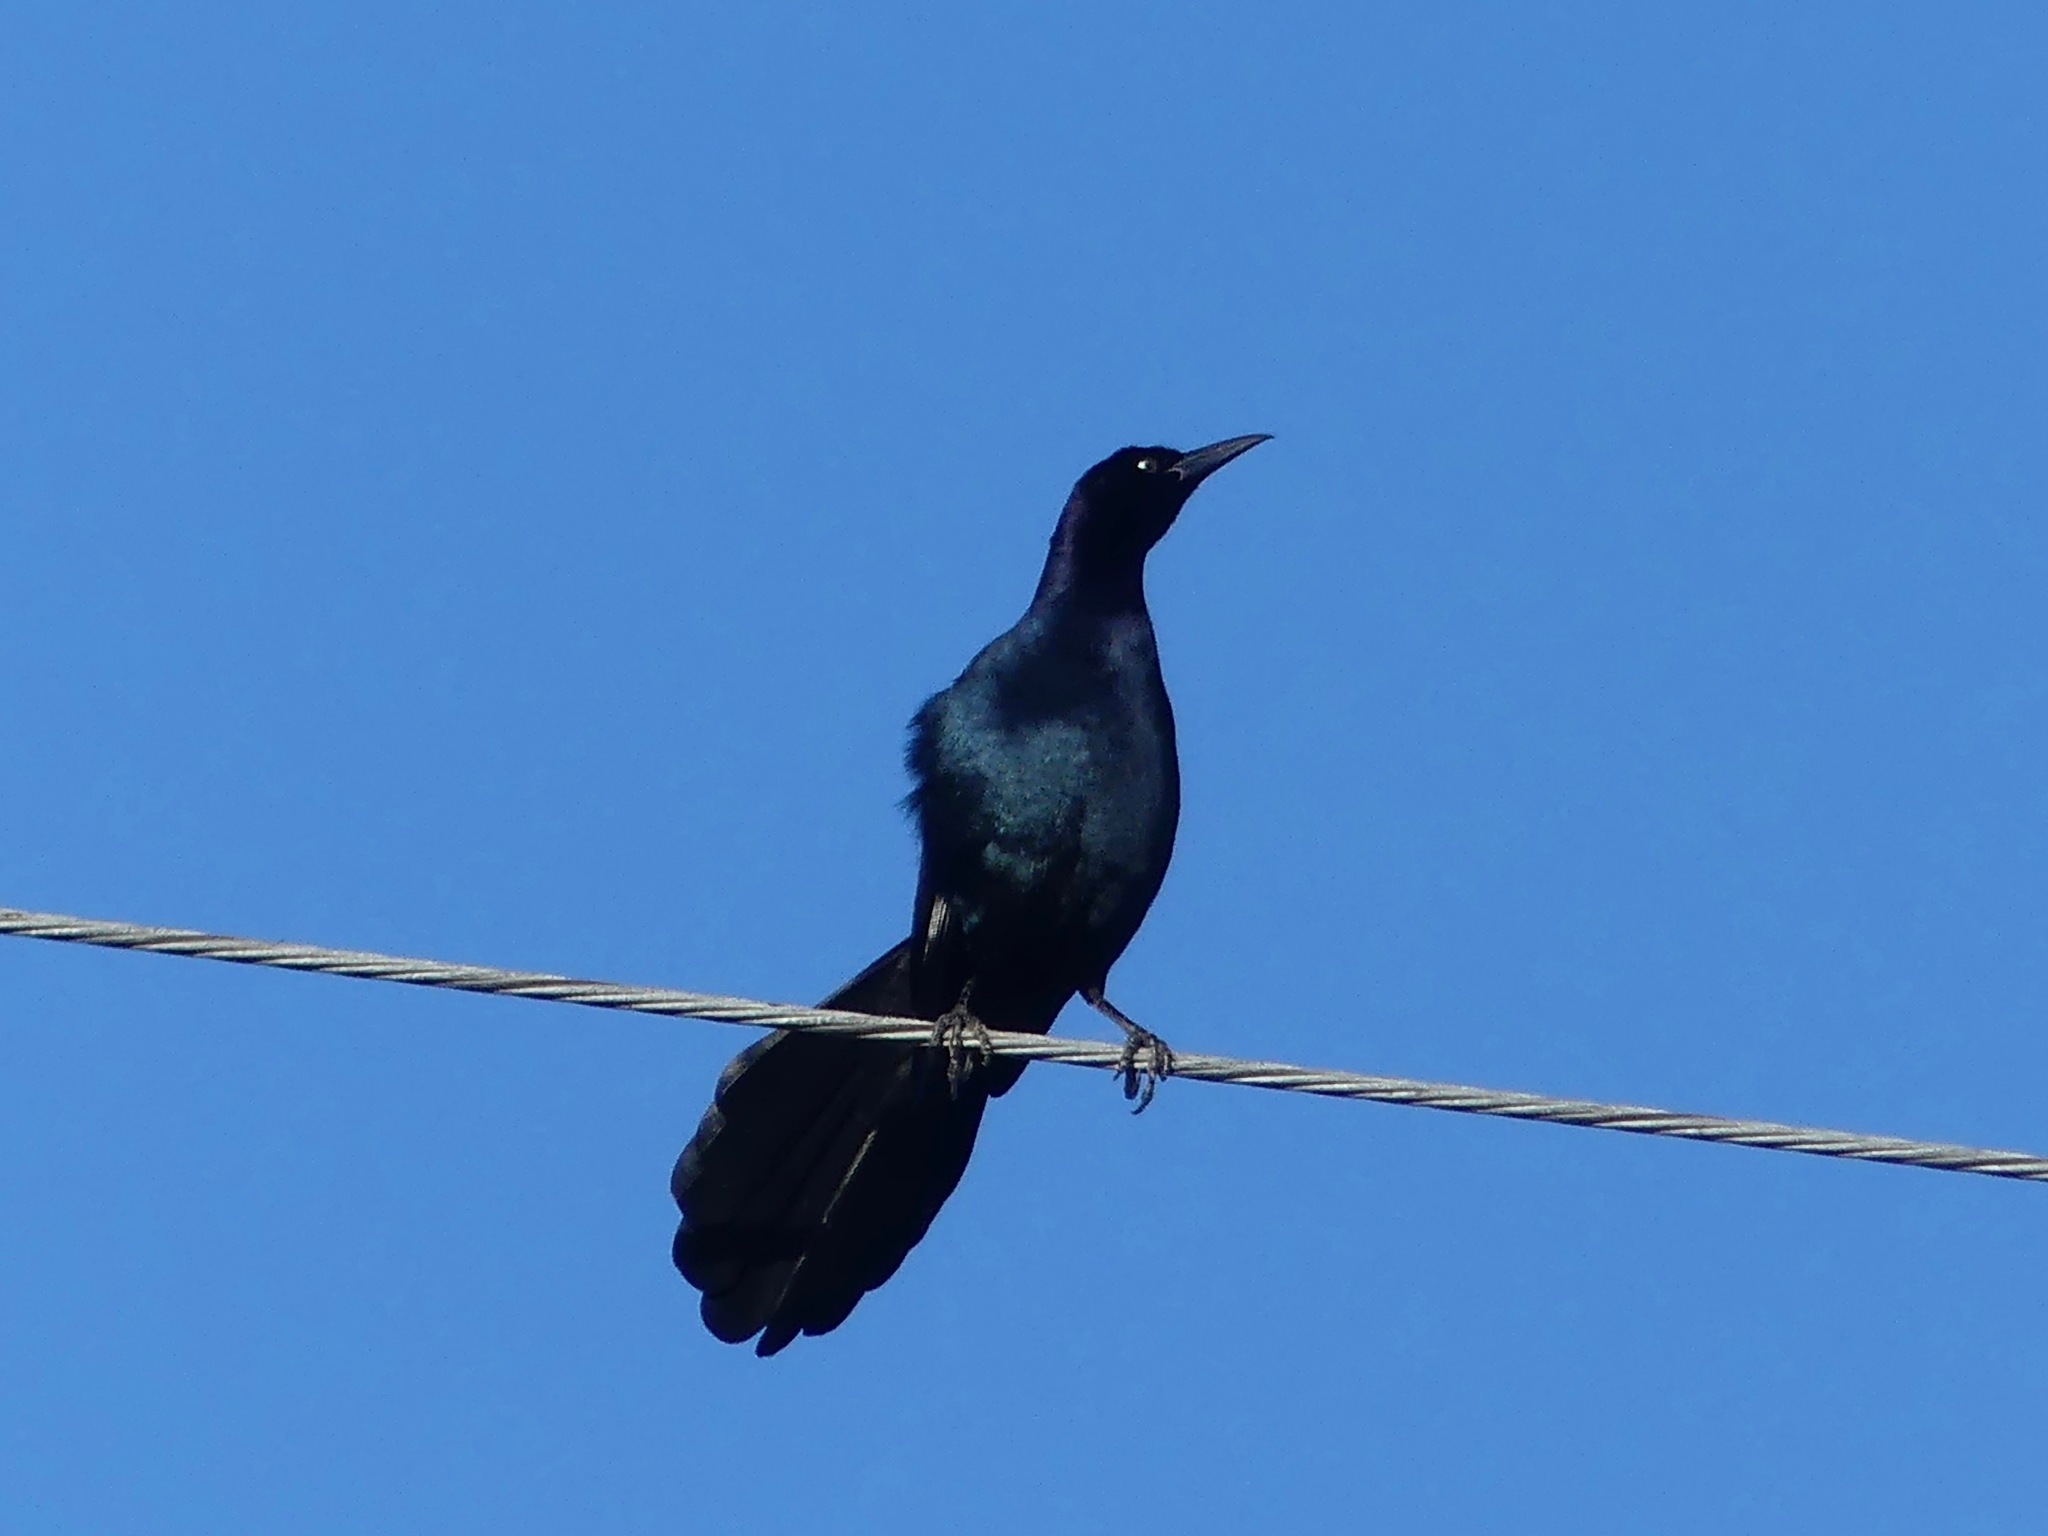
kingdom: Animalia
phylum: Chordata
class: Aves
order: Passeriformes
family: Icteridae
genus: Quiscalus
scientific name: Quiscalus major
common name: Boat-tailed grackle
